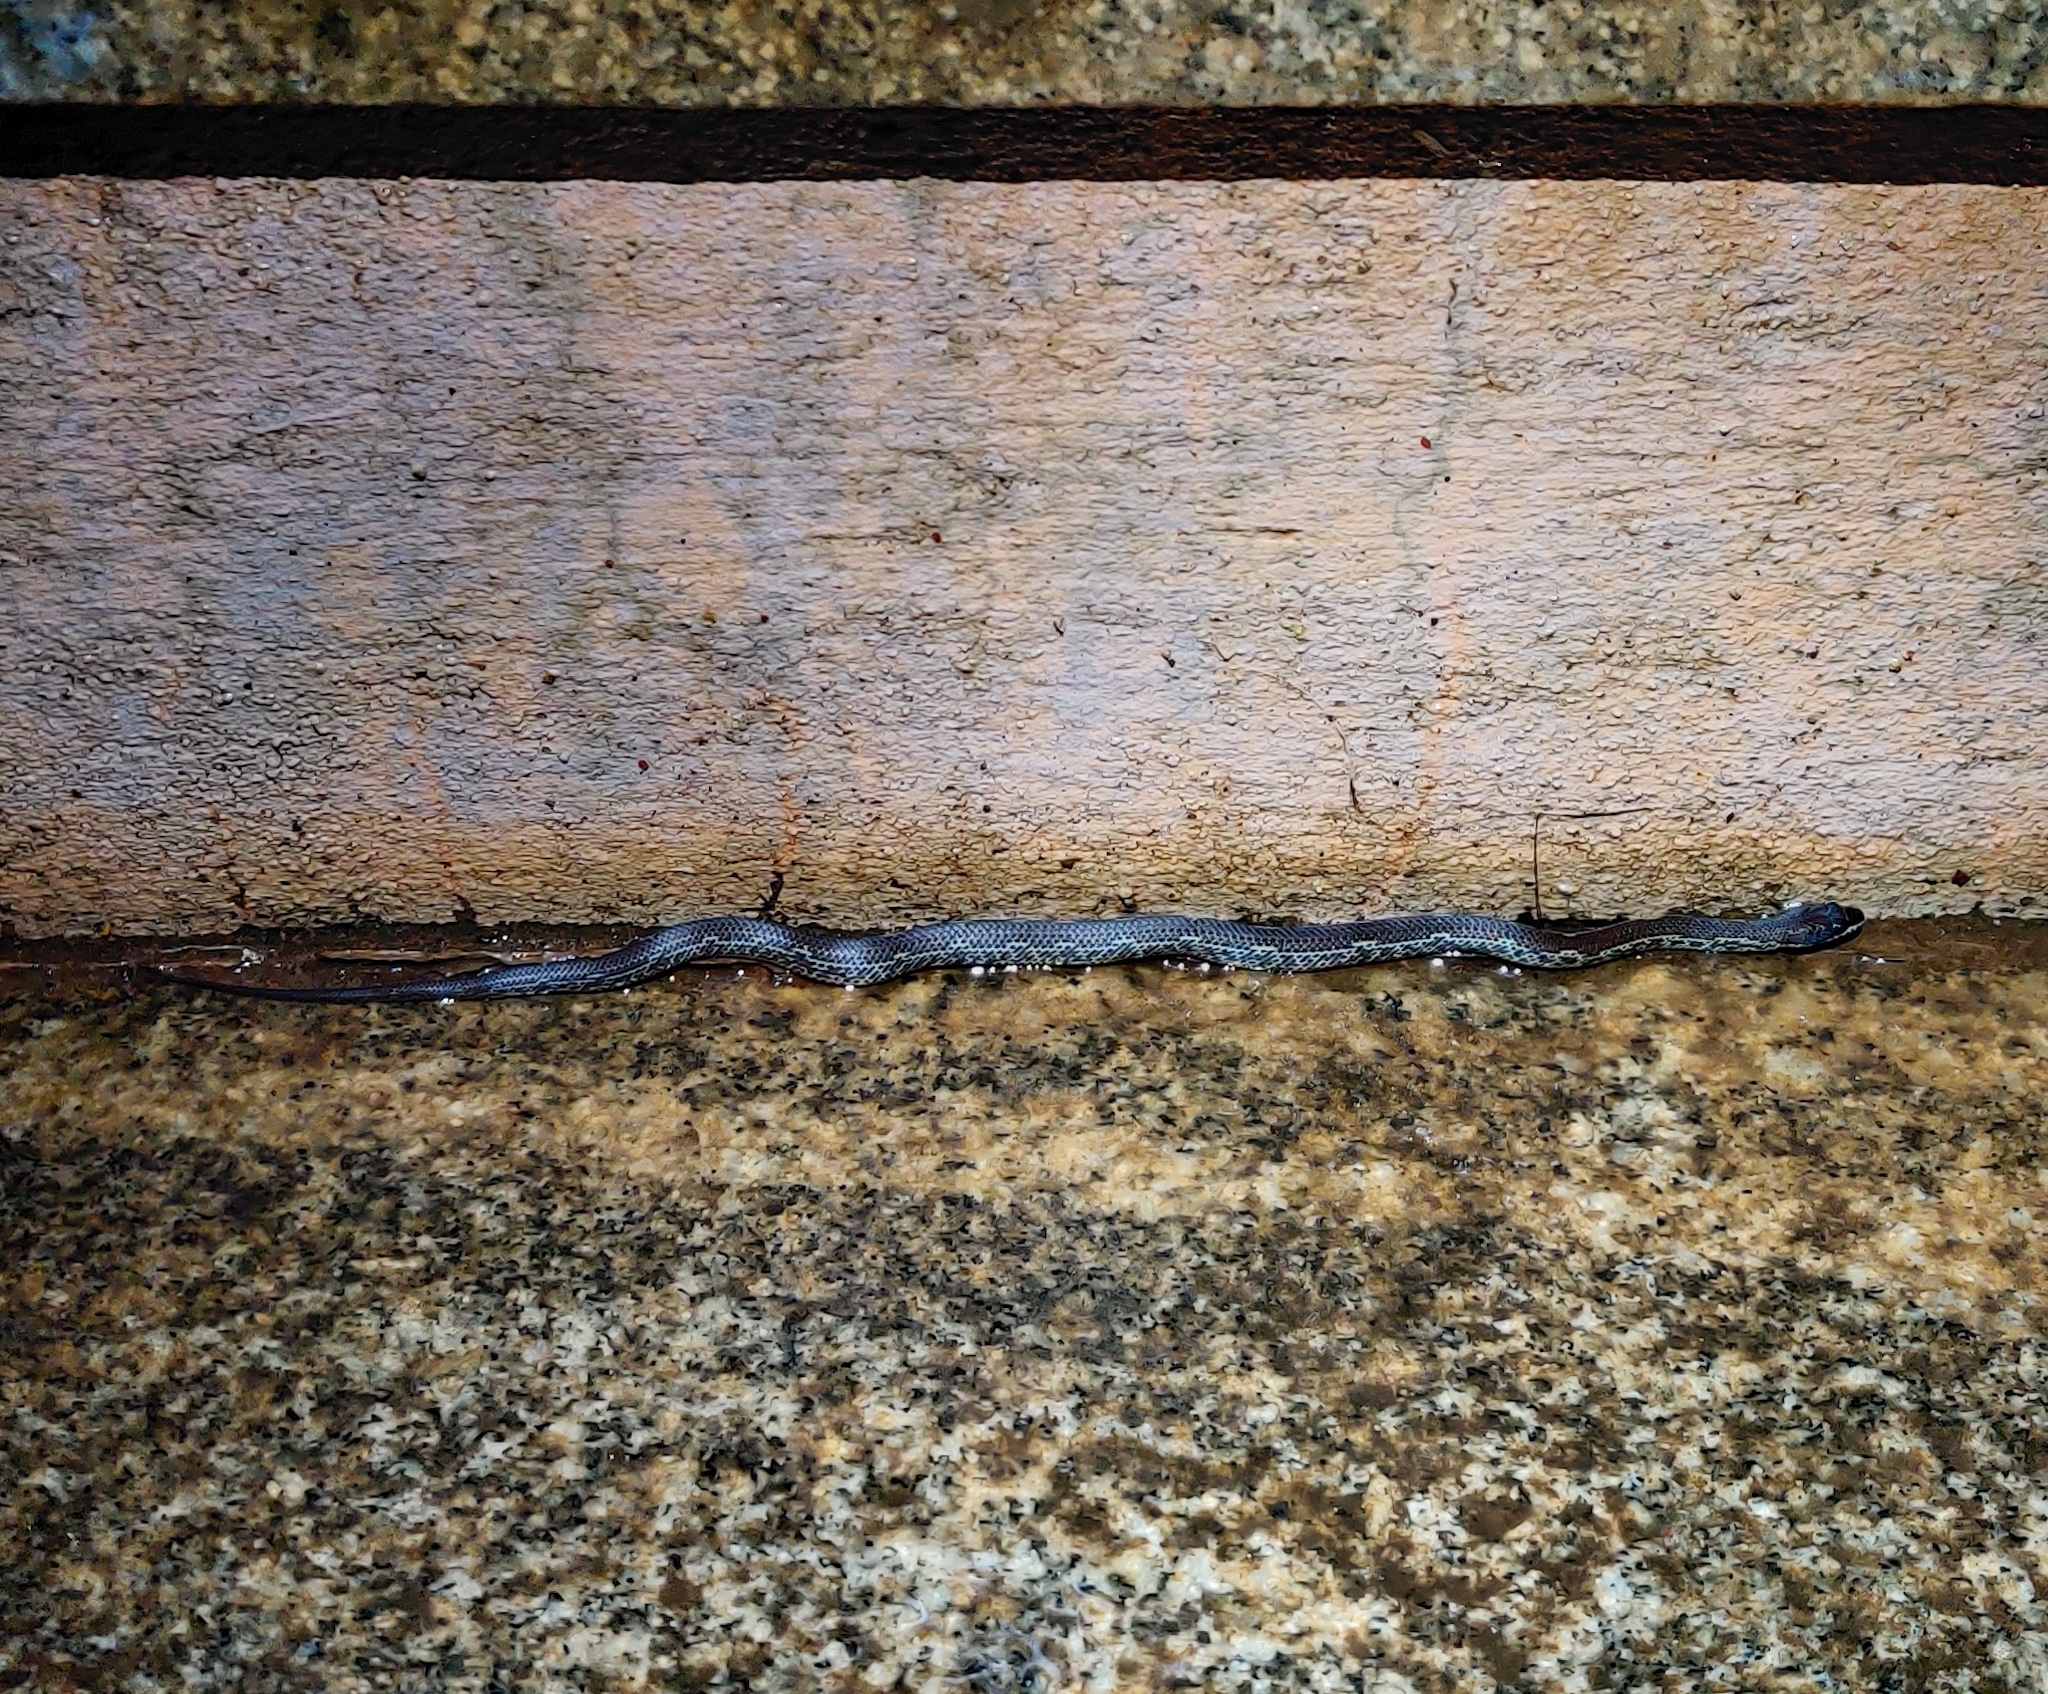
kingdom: Animalia
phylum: Chordata
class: Squamata
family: Colubridae
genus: Lycodon
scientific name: Lycodon fasciolatus
